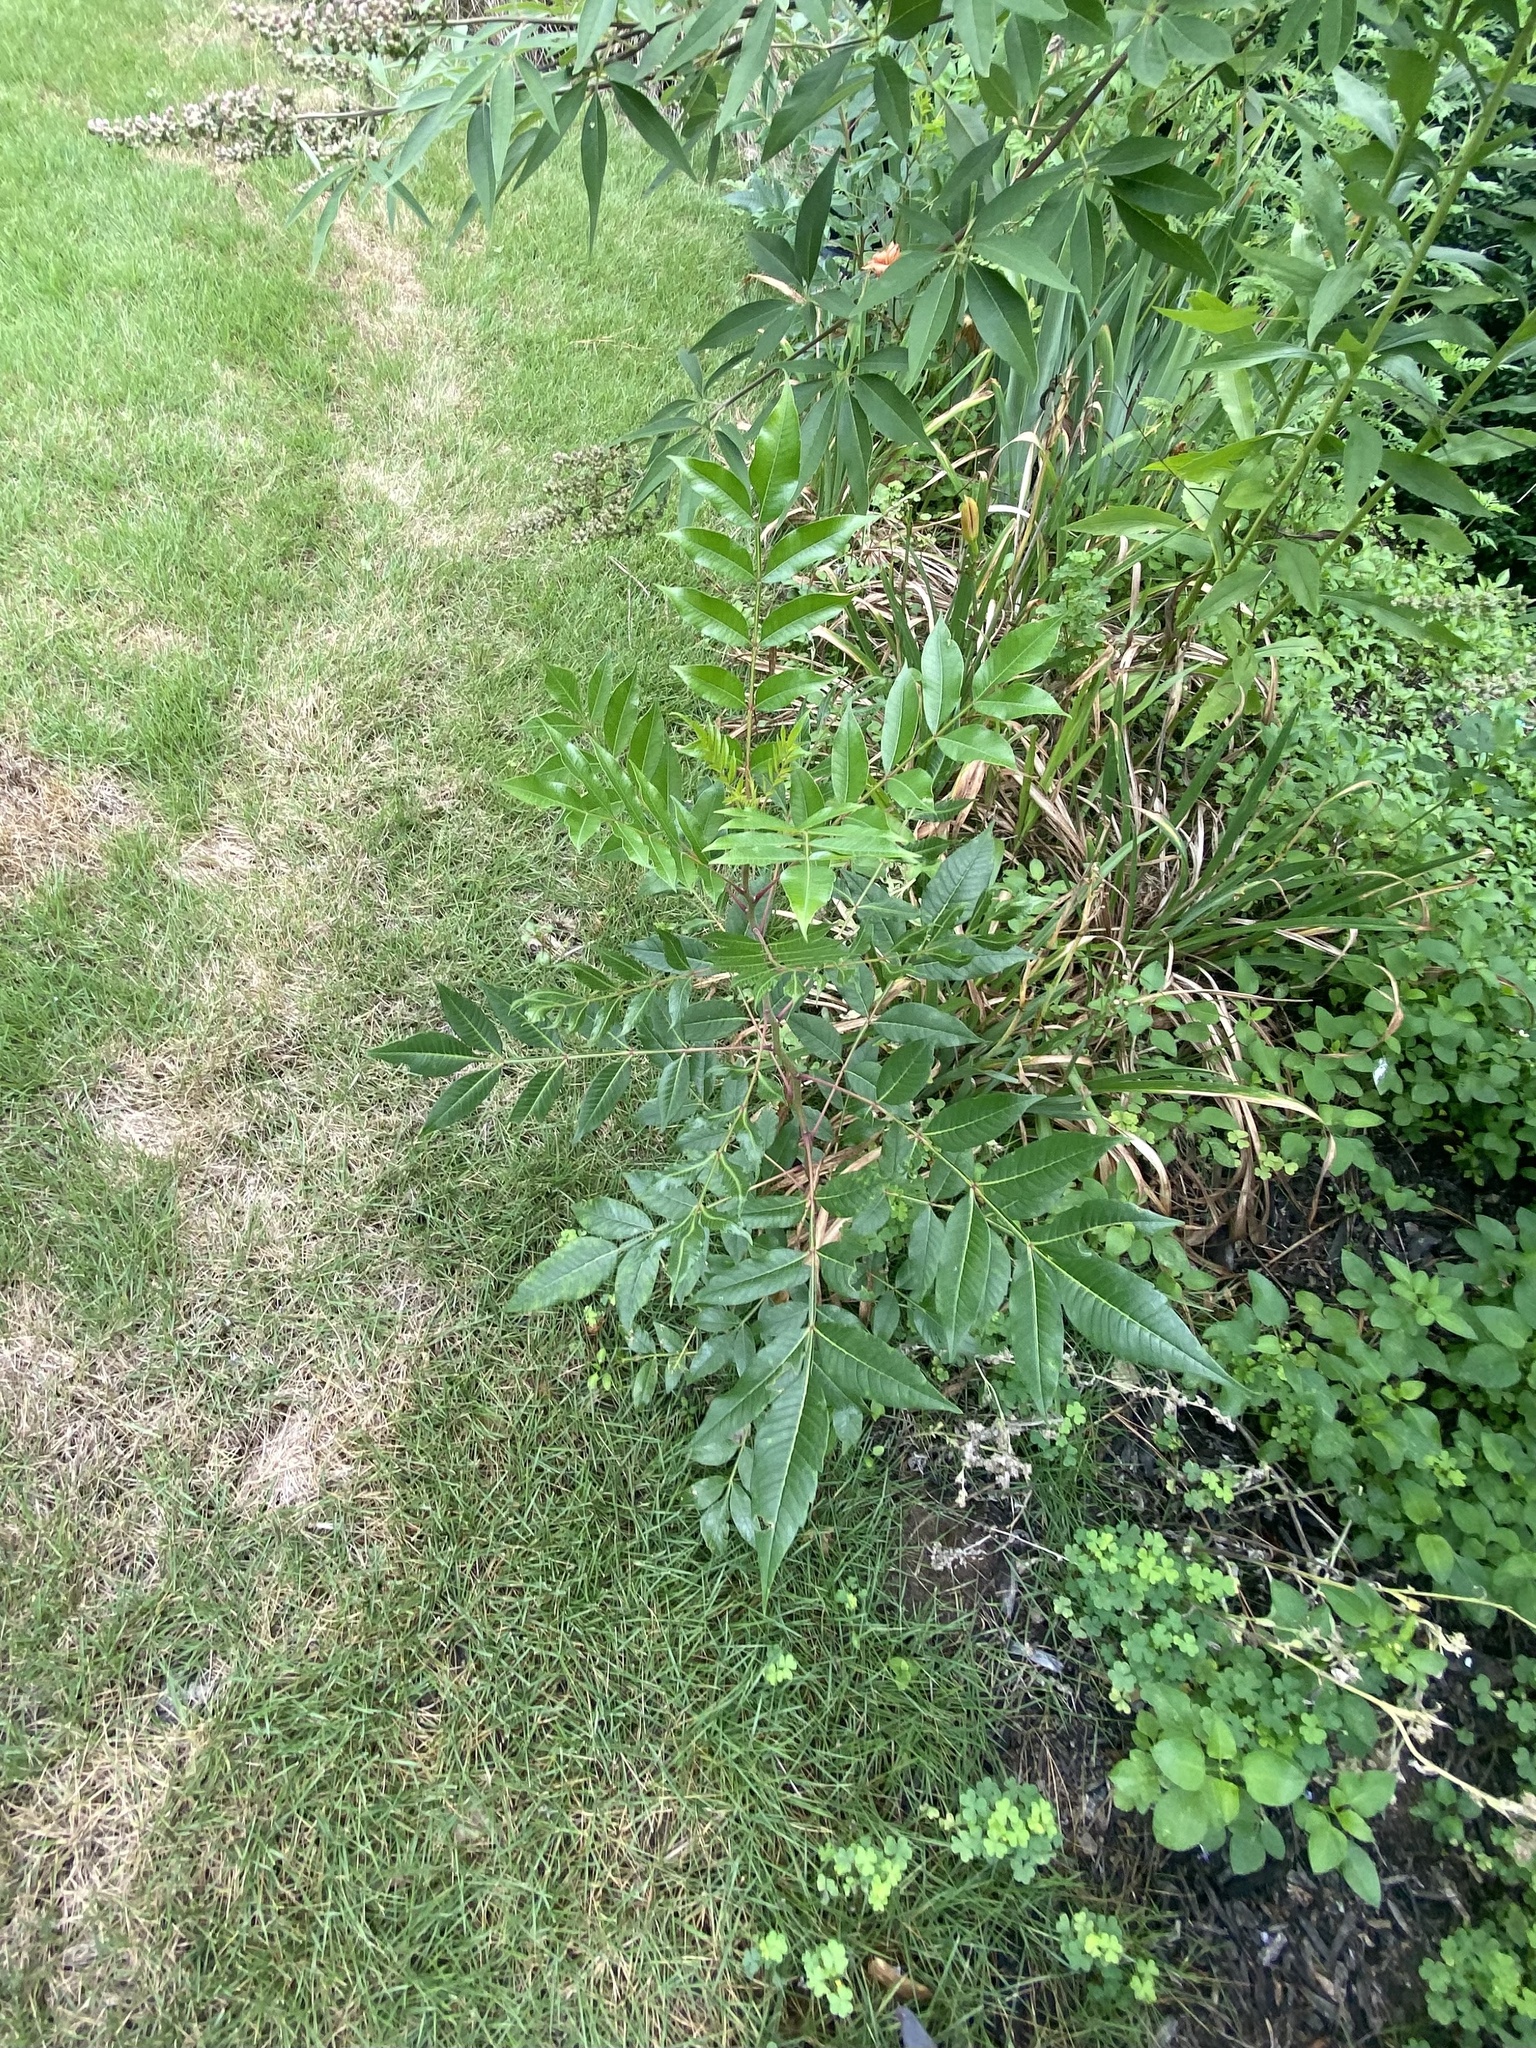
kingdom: Plantae
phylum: Tracheophyta
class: Magnoliopsida
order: Sapindales
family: Anacardiaceae
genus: Rhus
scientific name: Rhus copallina
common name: Shining sumac
